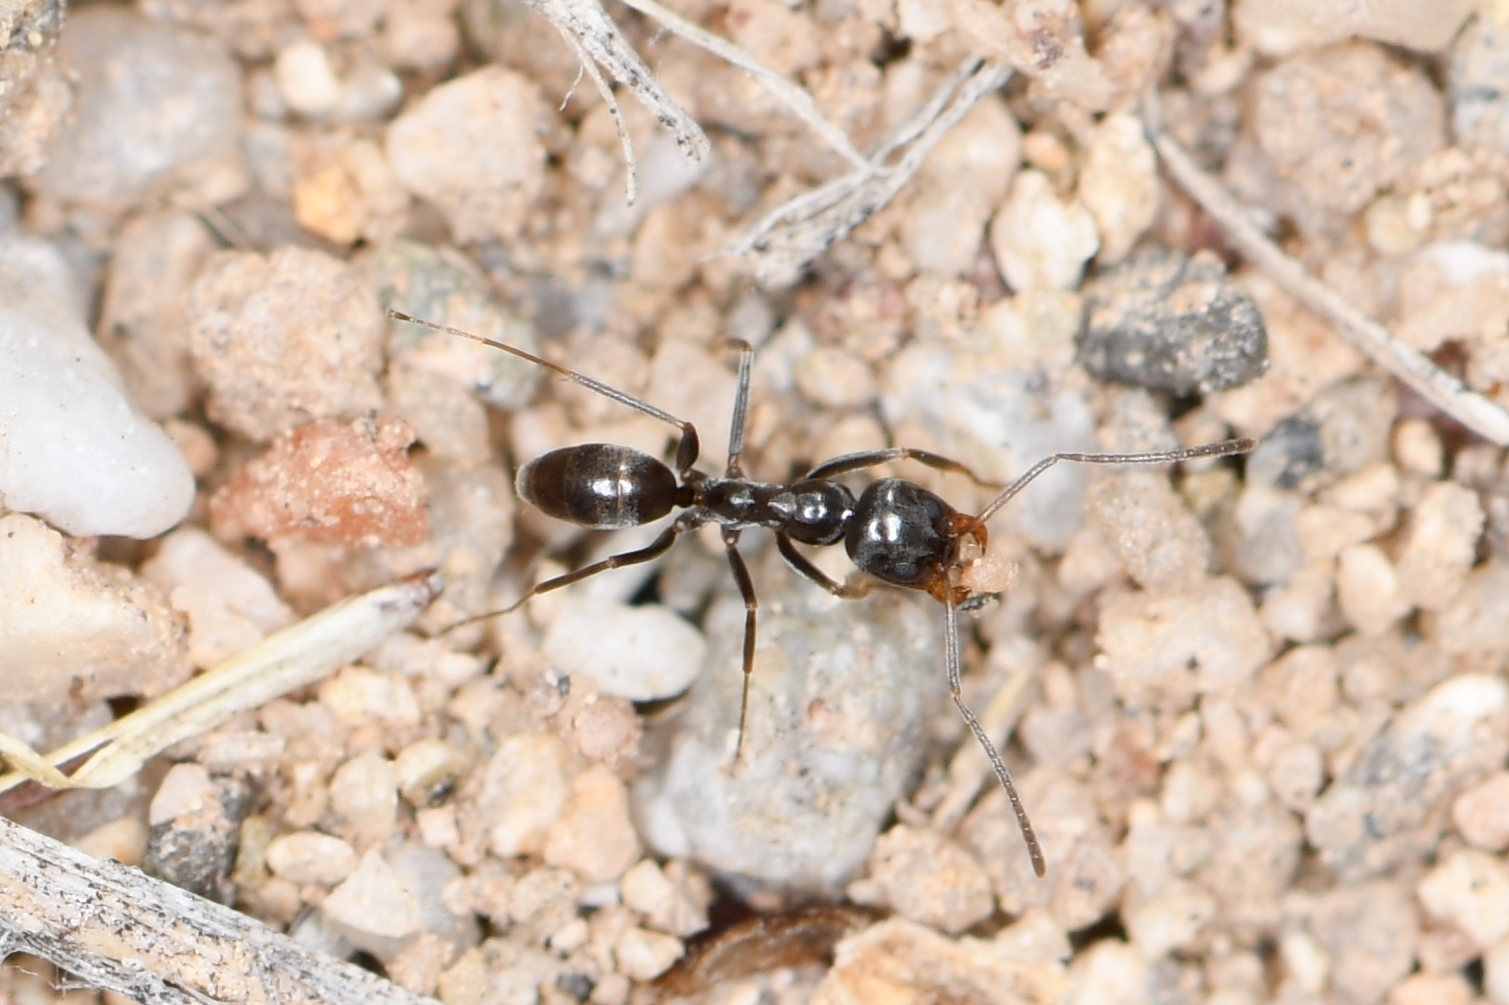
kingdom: Animalia
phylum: Arthropoda
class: Insecta
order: Hymenoptera
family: Formicidae
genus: Dorymyrmex
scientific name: Dorymyrmex insanus
